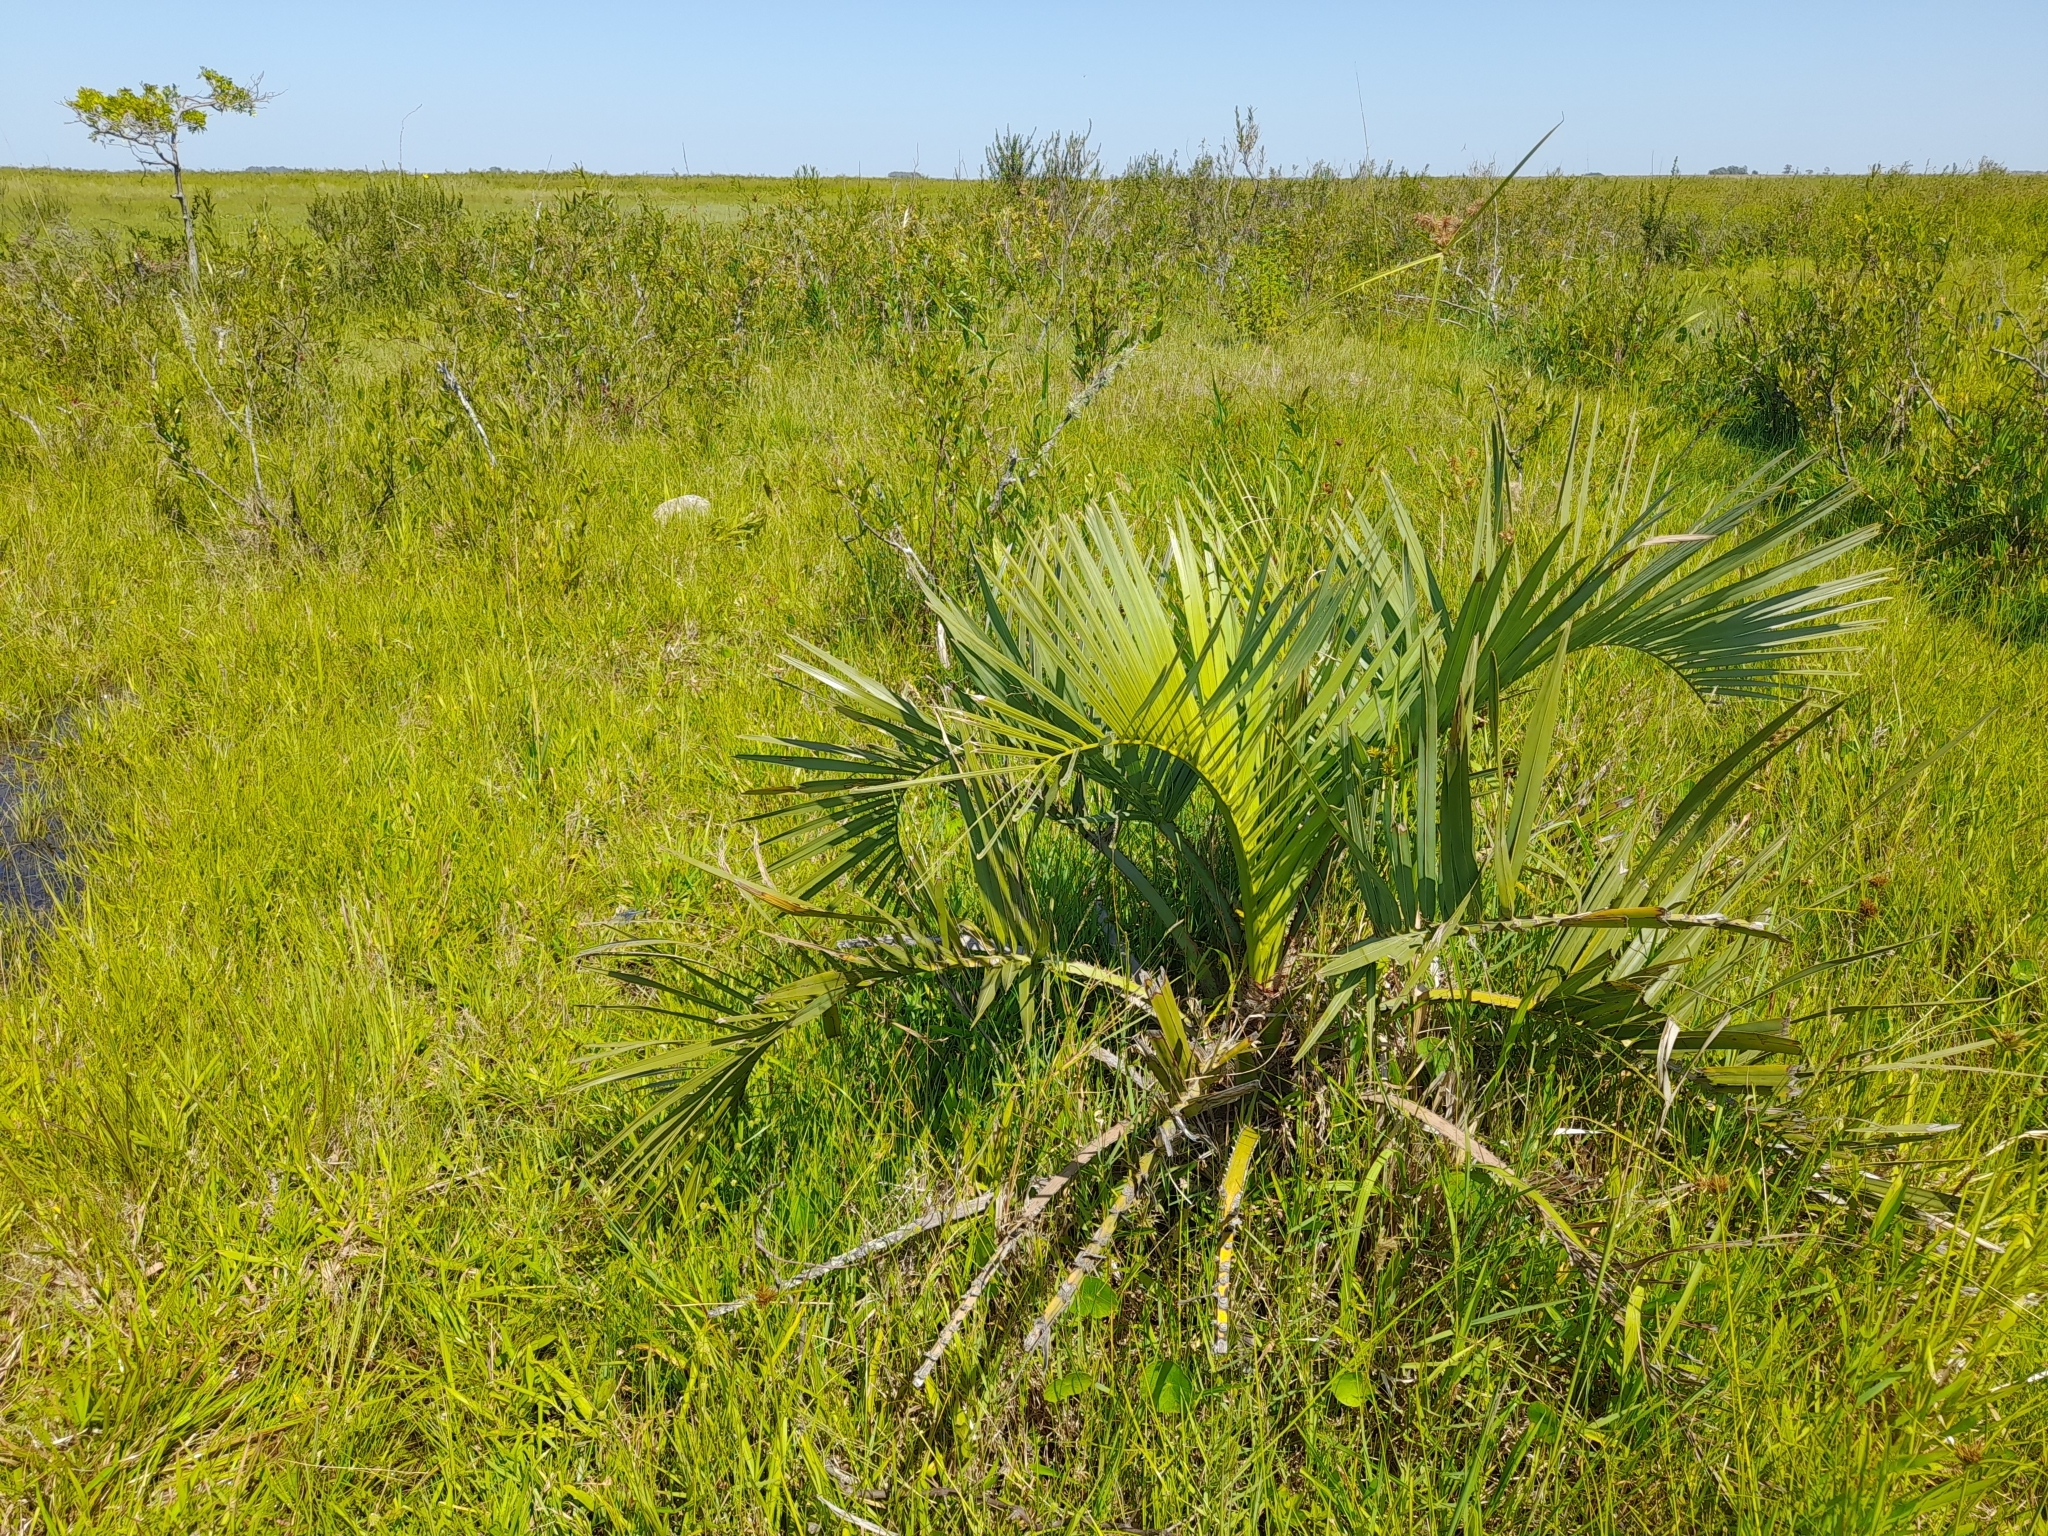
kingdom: Plantae
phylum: Tracheophyta
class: Liliopsida
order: Arecales
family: Arecaceae
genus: Butia
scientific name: Butia odorata
